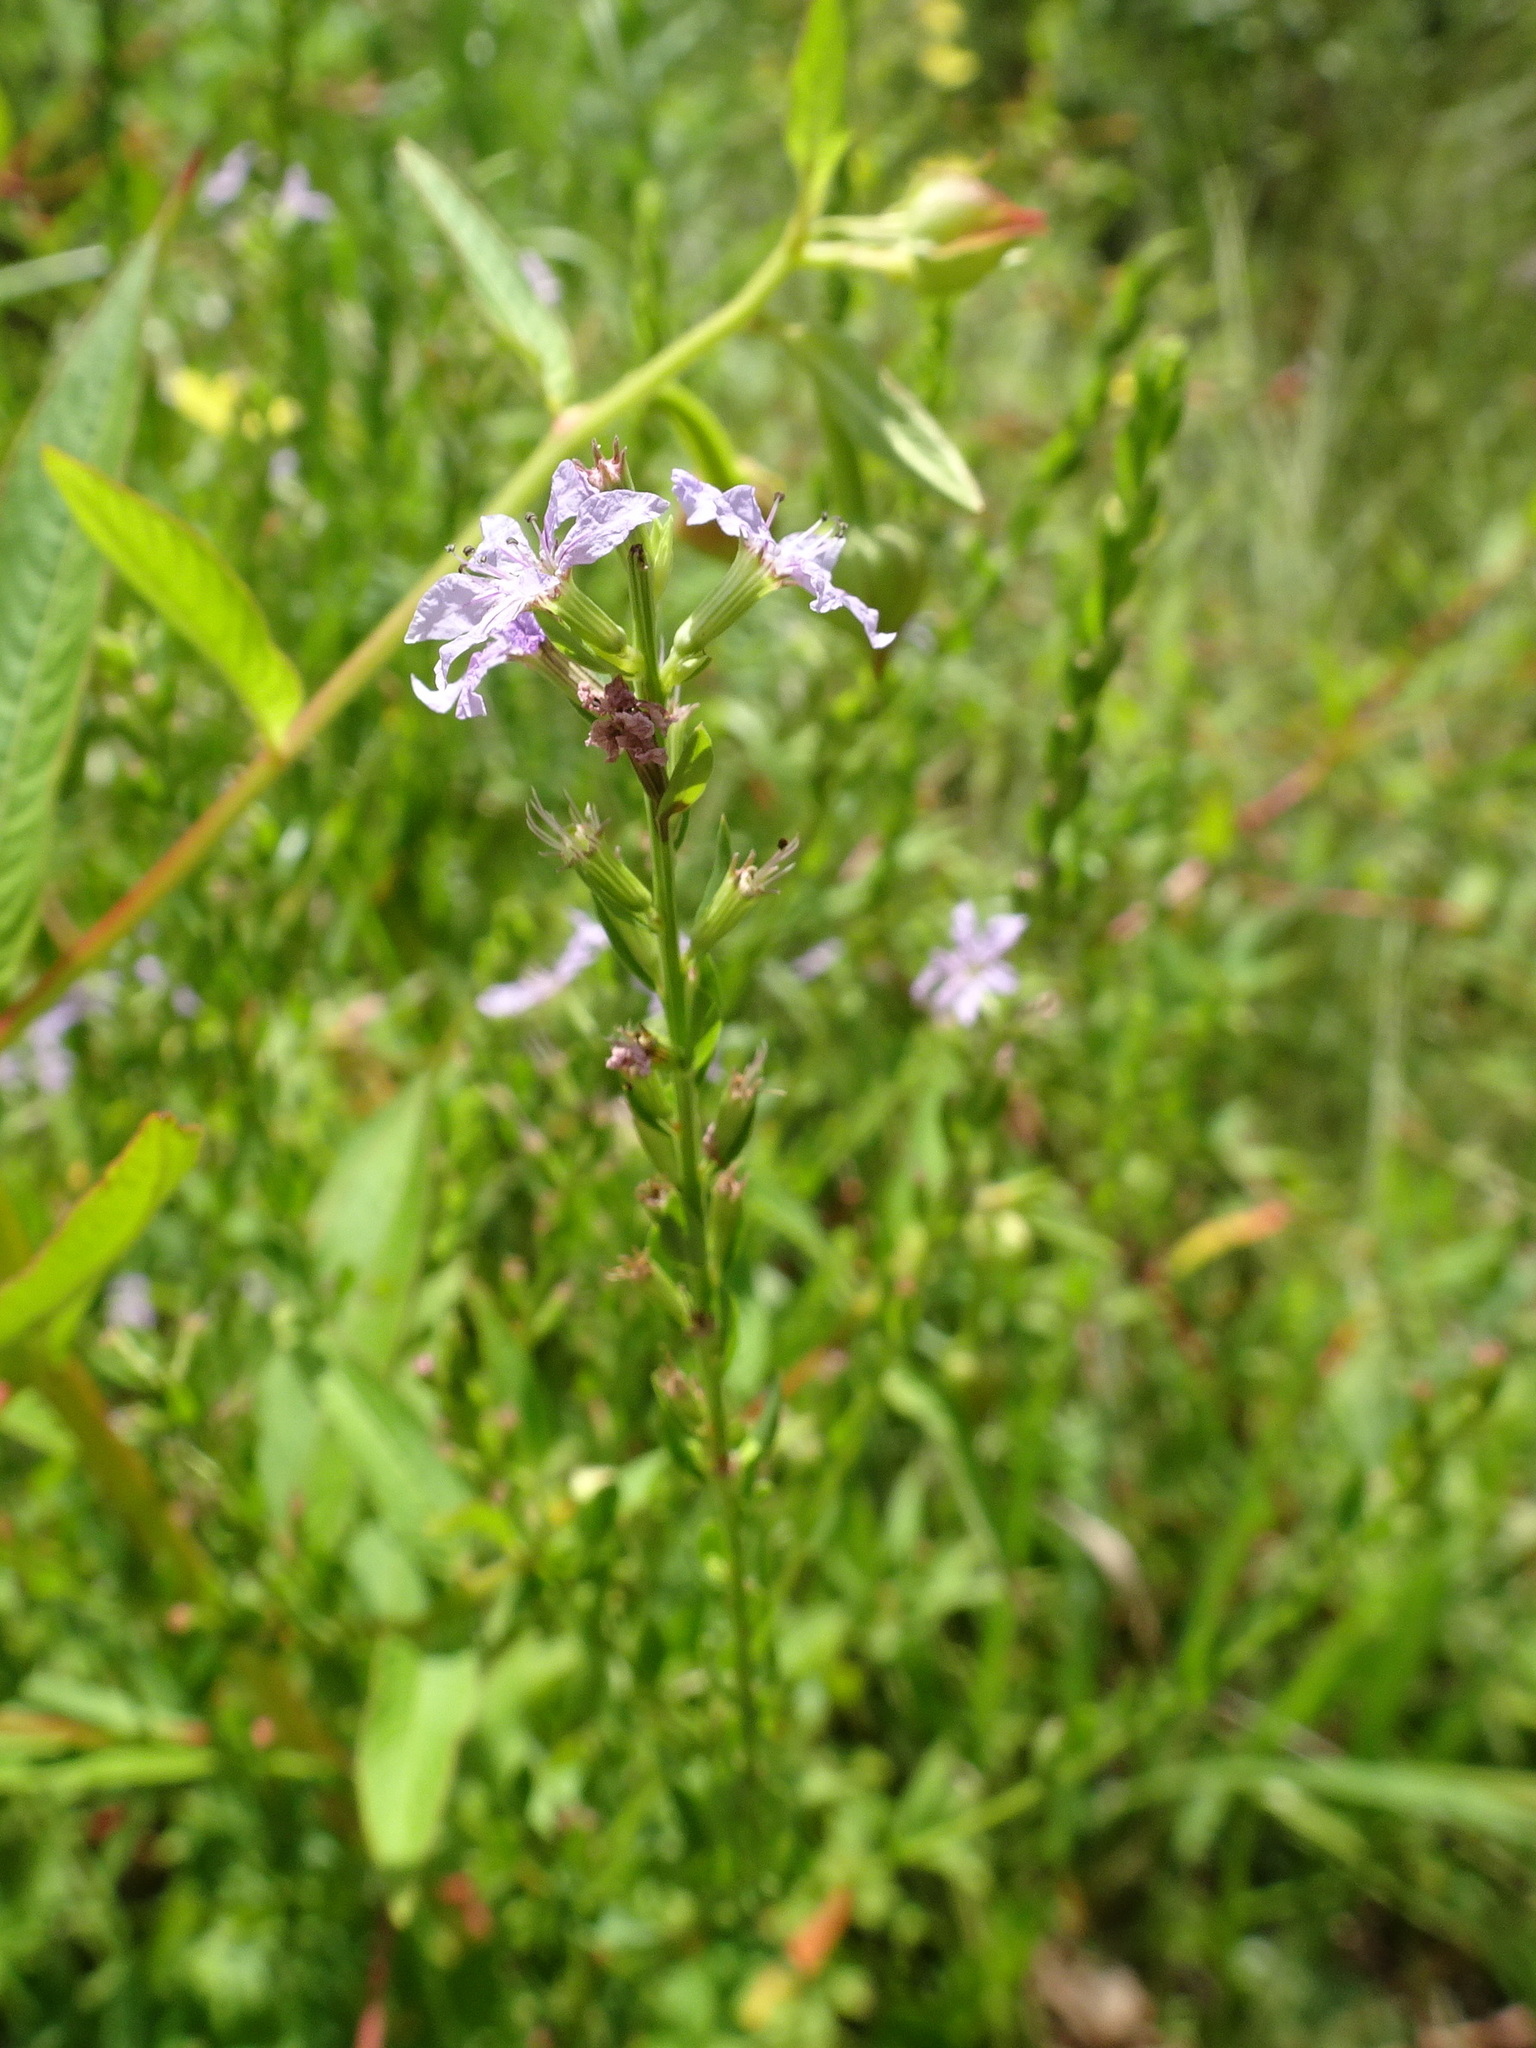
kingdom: Plantae
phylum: Tracheophyta
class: Magnoliopsida
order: Myrtales
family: Lythraceae
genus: Lythrum
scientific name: Lythrum alatum
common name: Winged loosestrife
